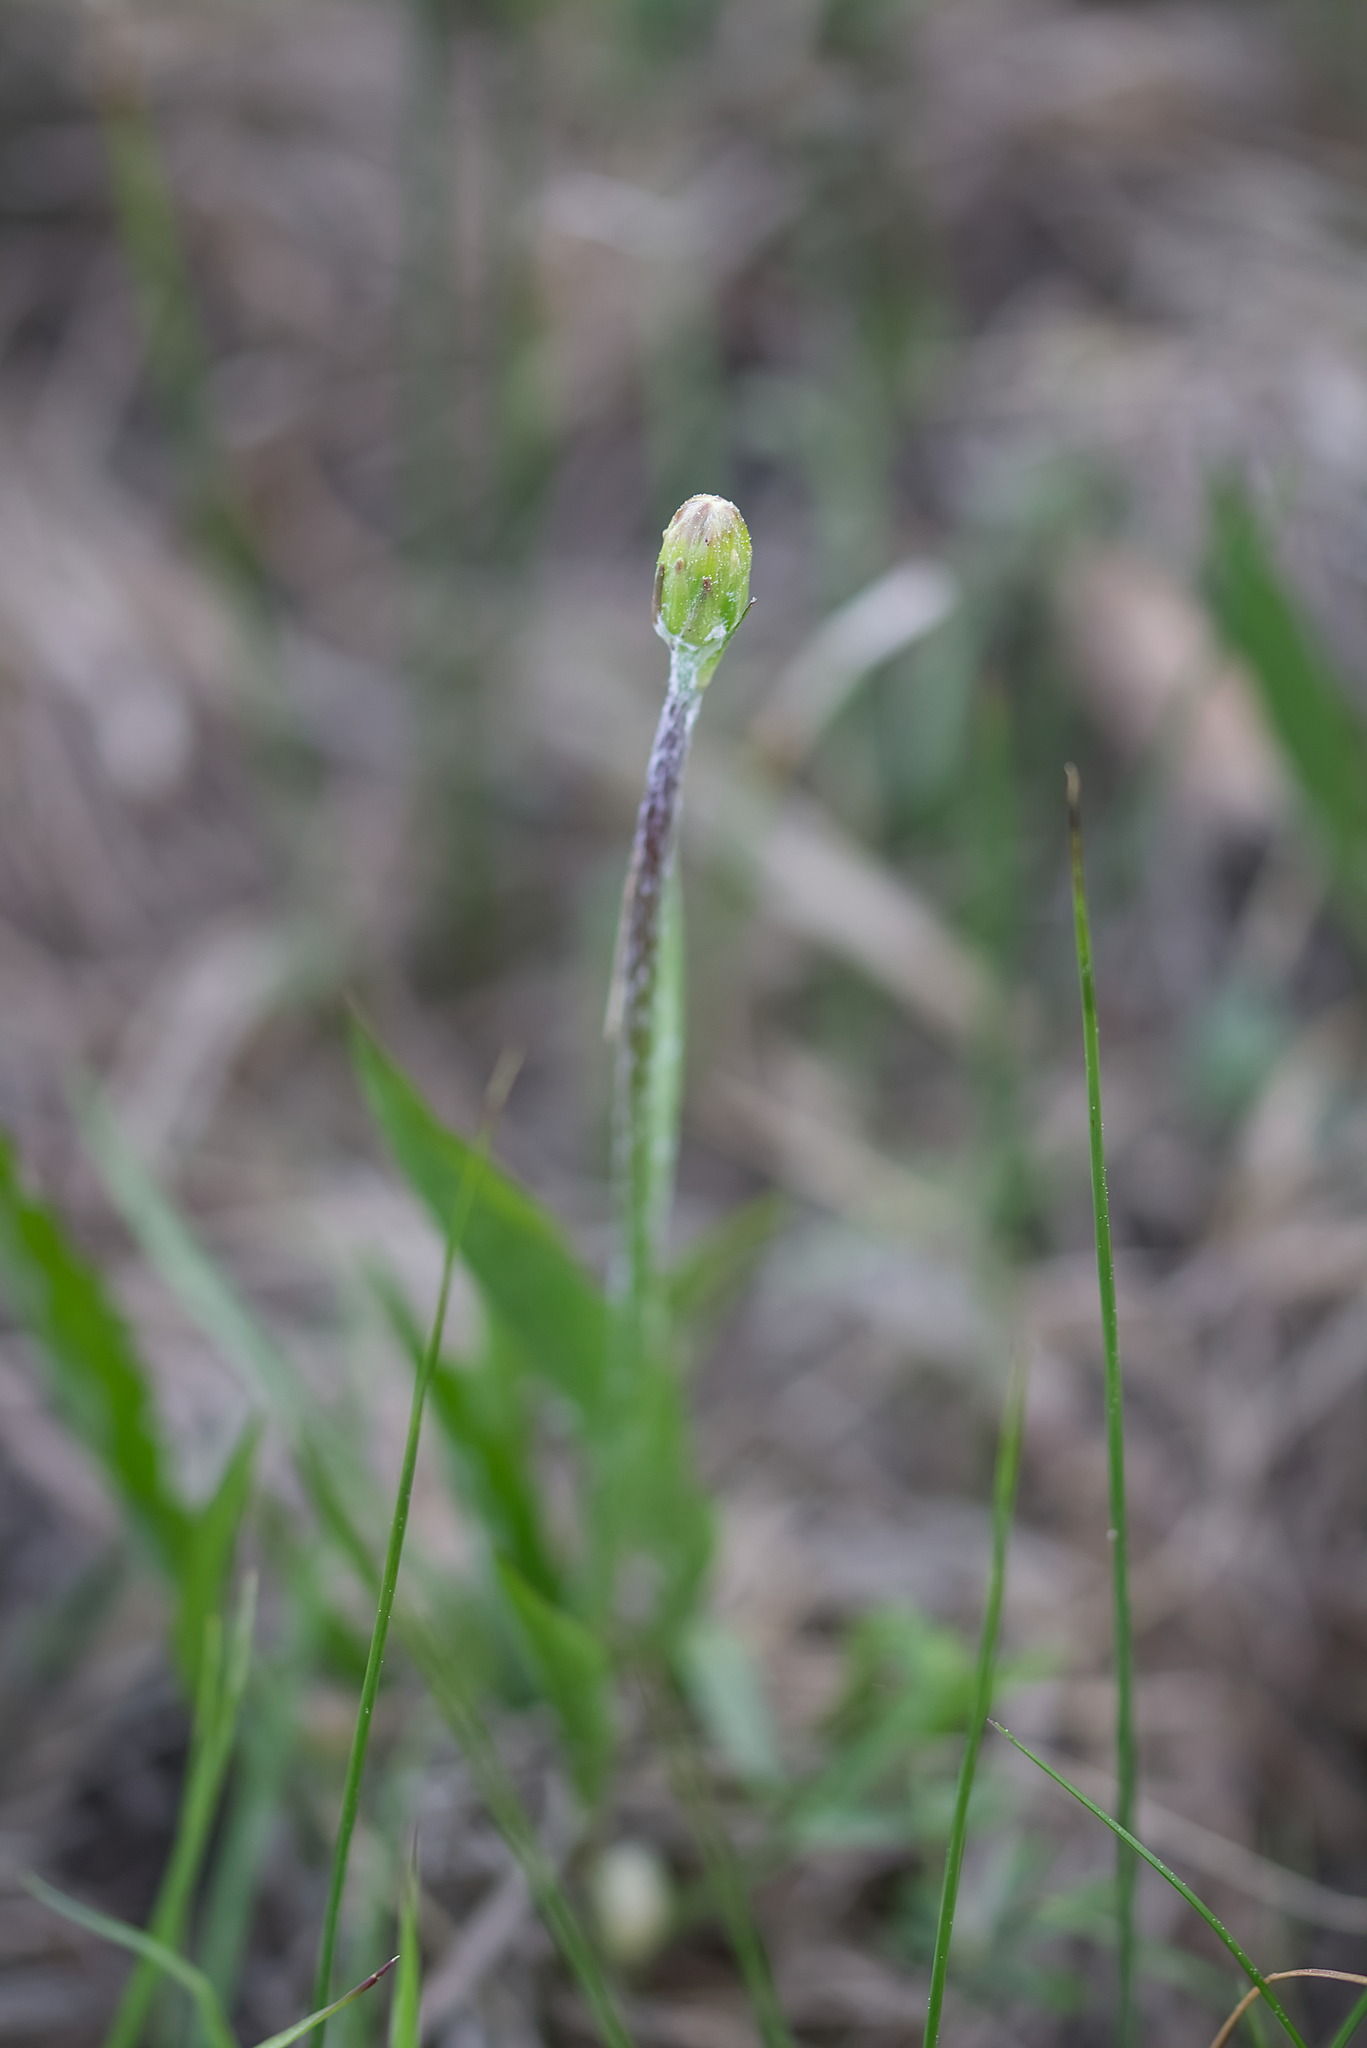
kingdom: Plantae
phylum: Tracheophyta
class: Magnoliopsida
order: Asterales
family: Asteraceae
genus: Scorzonera
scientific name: Scorzonera humilis
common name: Viper's-grass
